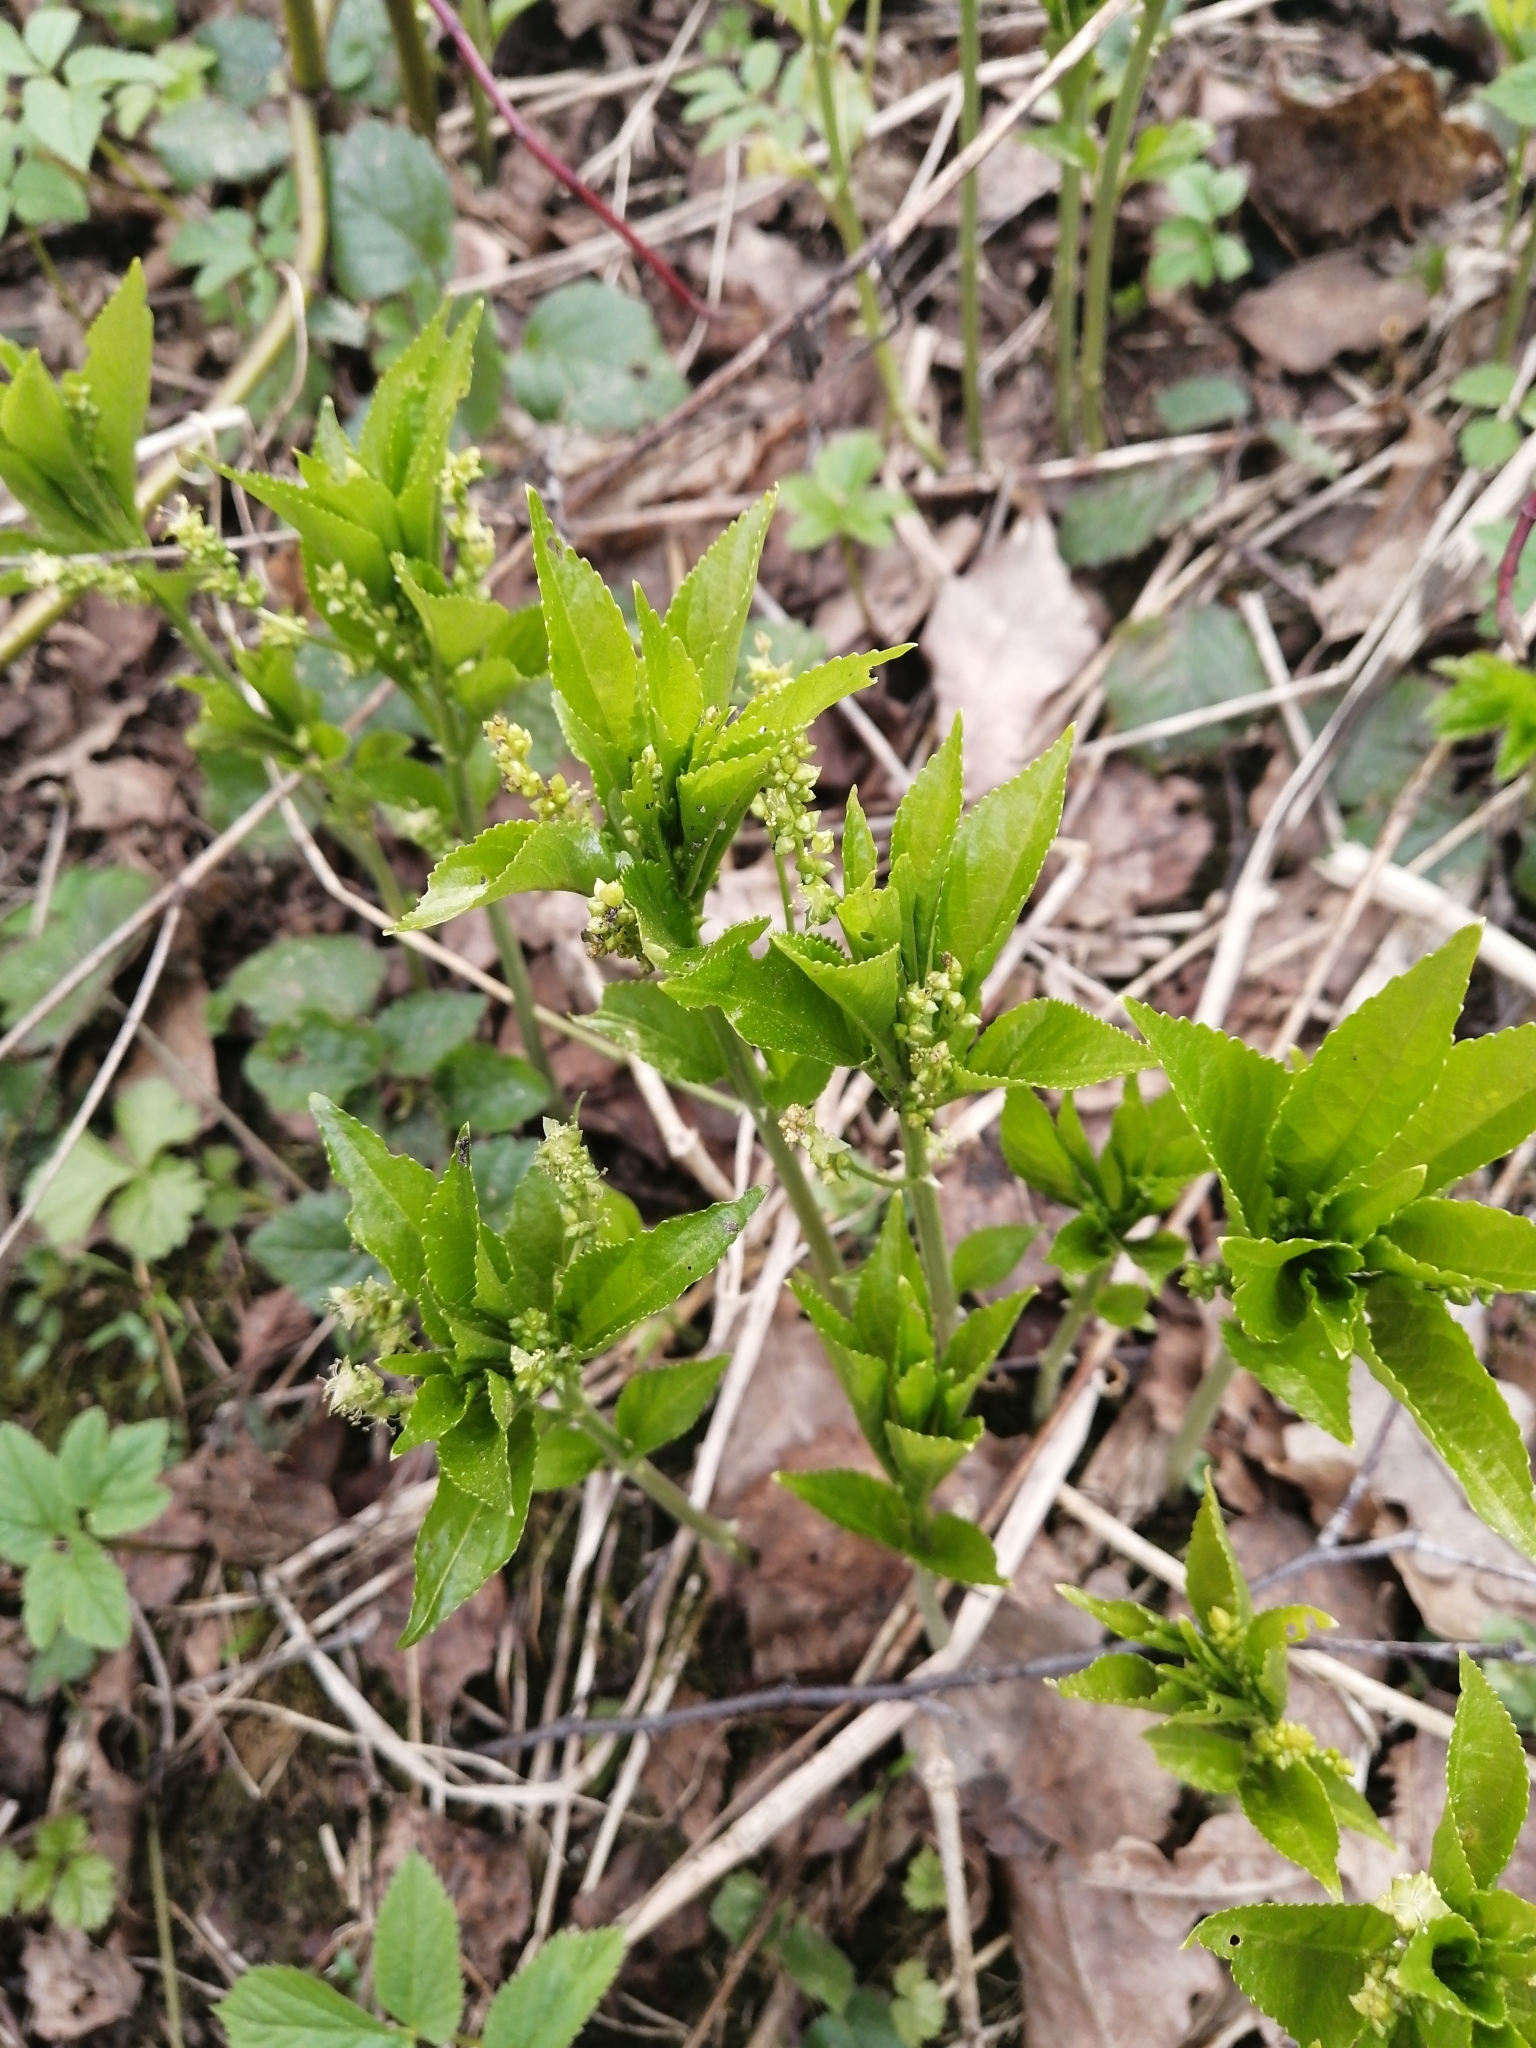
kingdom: Plantae
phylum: Tracheophyta
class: Magnoliopsida
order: Malpighiales
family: Euphorbiaceae
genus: Mercurialis
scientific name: Mercurialis perennis
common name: Dog mercury
